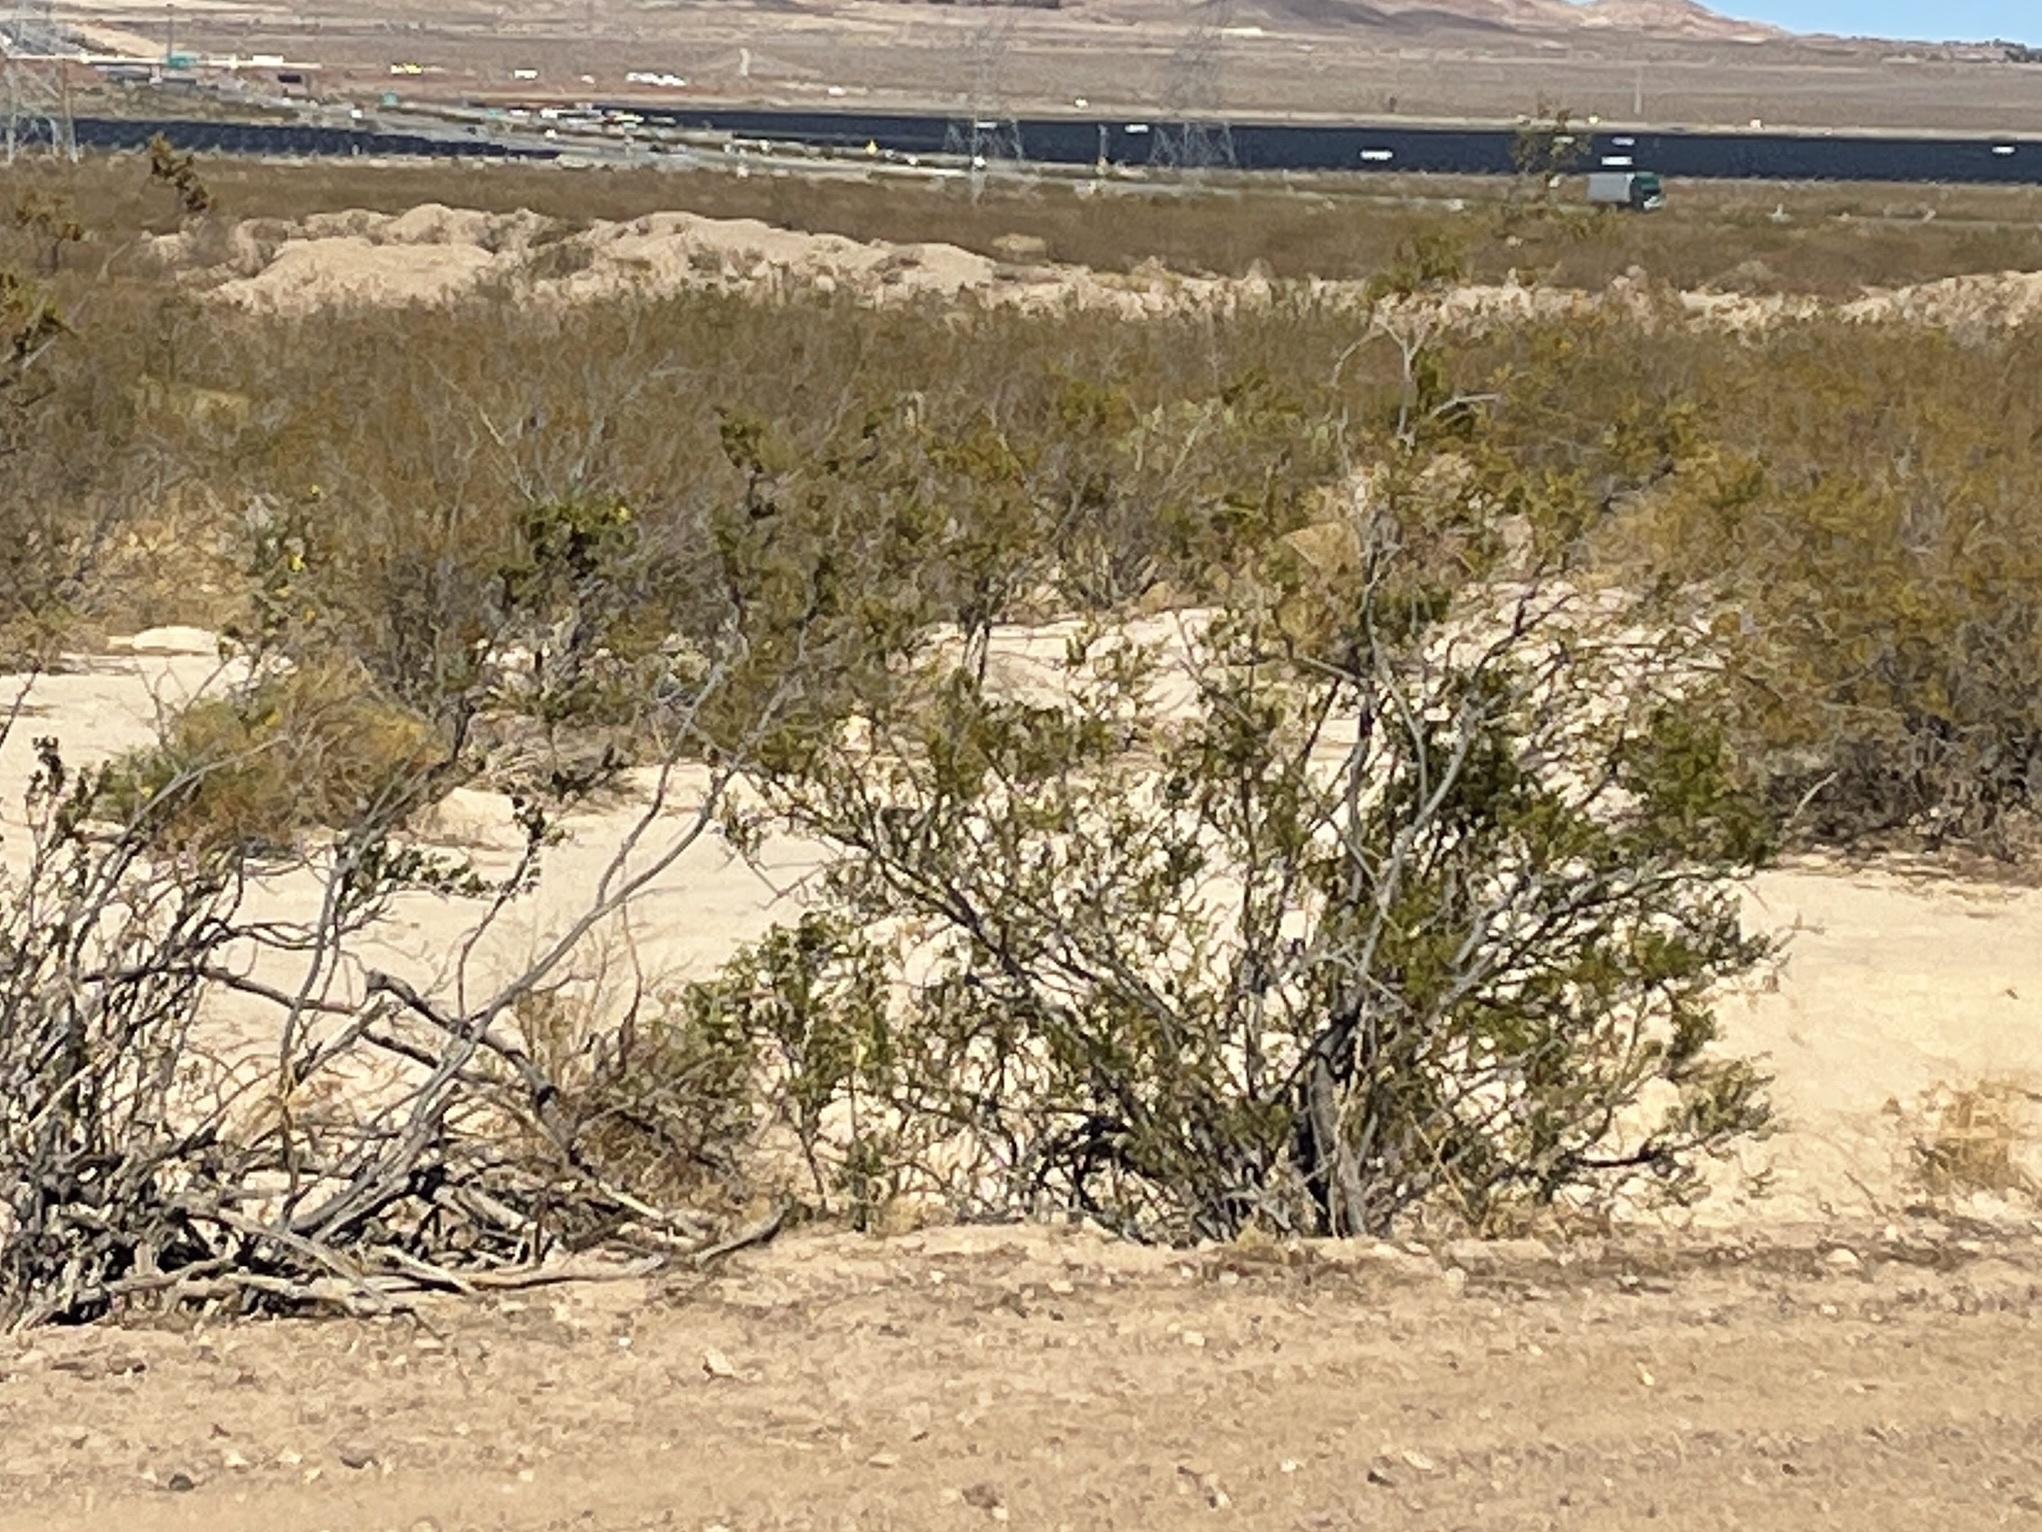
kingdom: Plantae
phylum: Tracheophyta
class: Magnoliopsida
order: Zygophyllales
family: Zygophyllaceae
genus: Larrea
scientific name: Larrea tridentata
